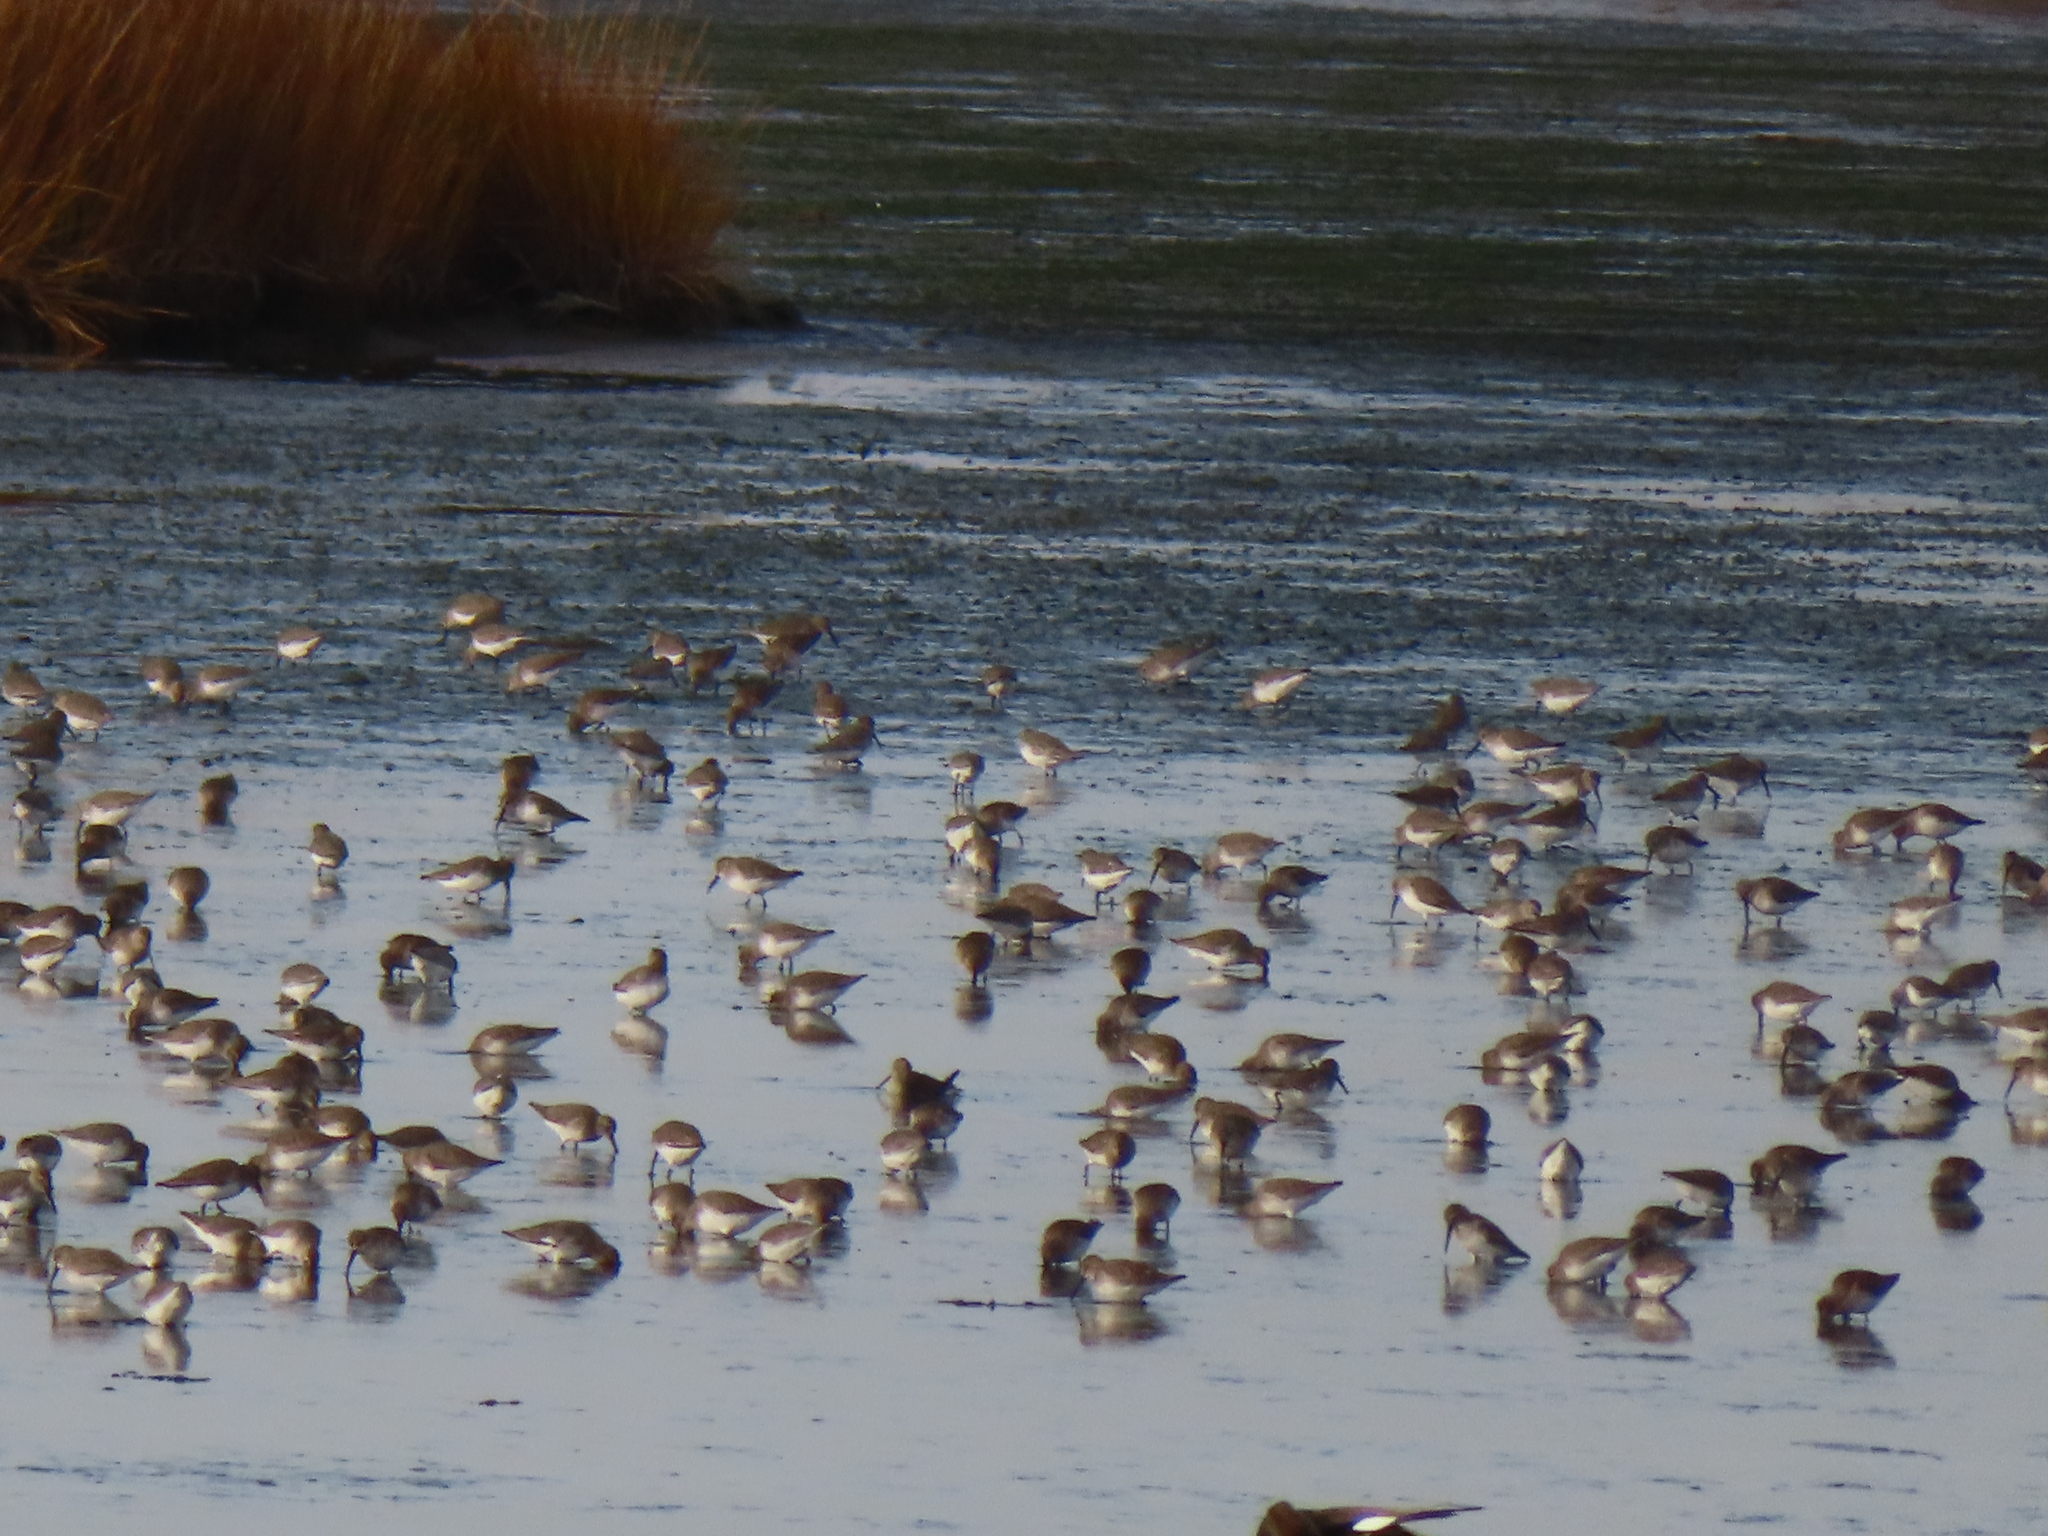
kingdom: Animalia
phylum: Chordata
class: Aves
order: Charadriiformes
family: Scolopacidae
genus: Calidris
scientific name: Calidris alpina
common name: Dunlin
